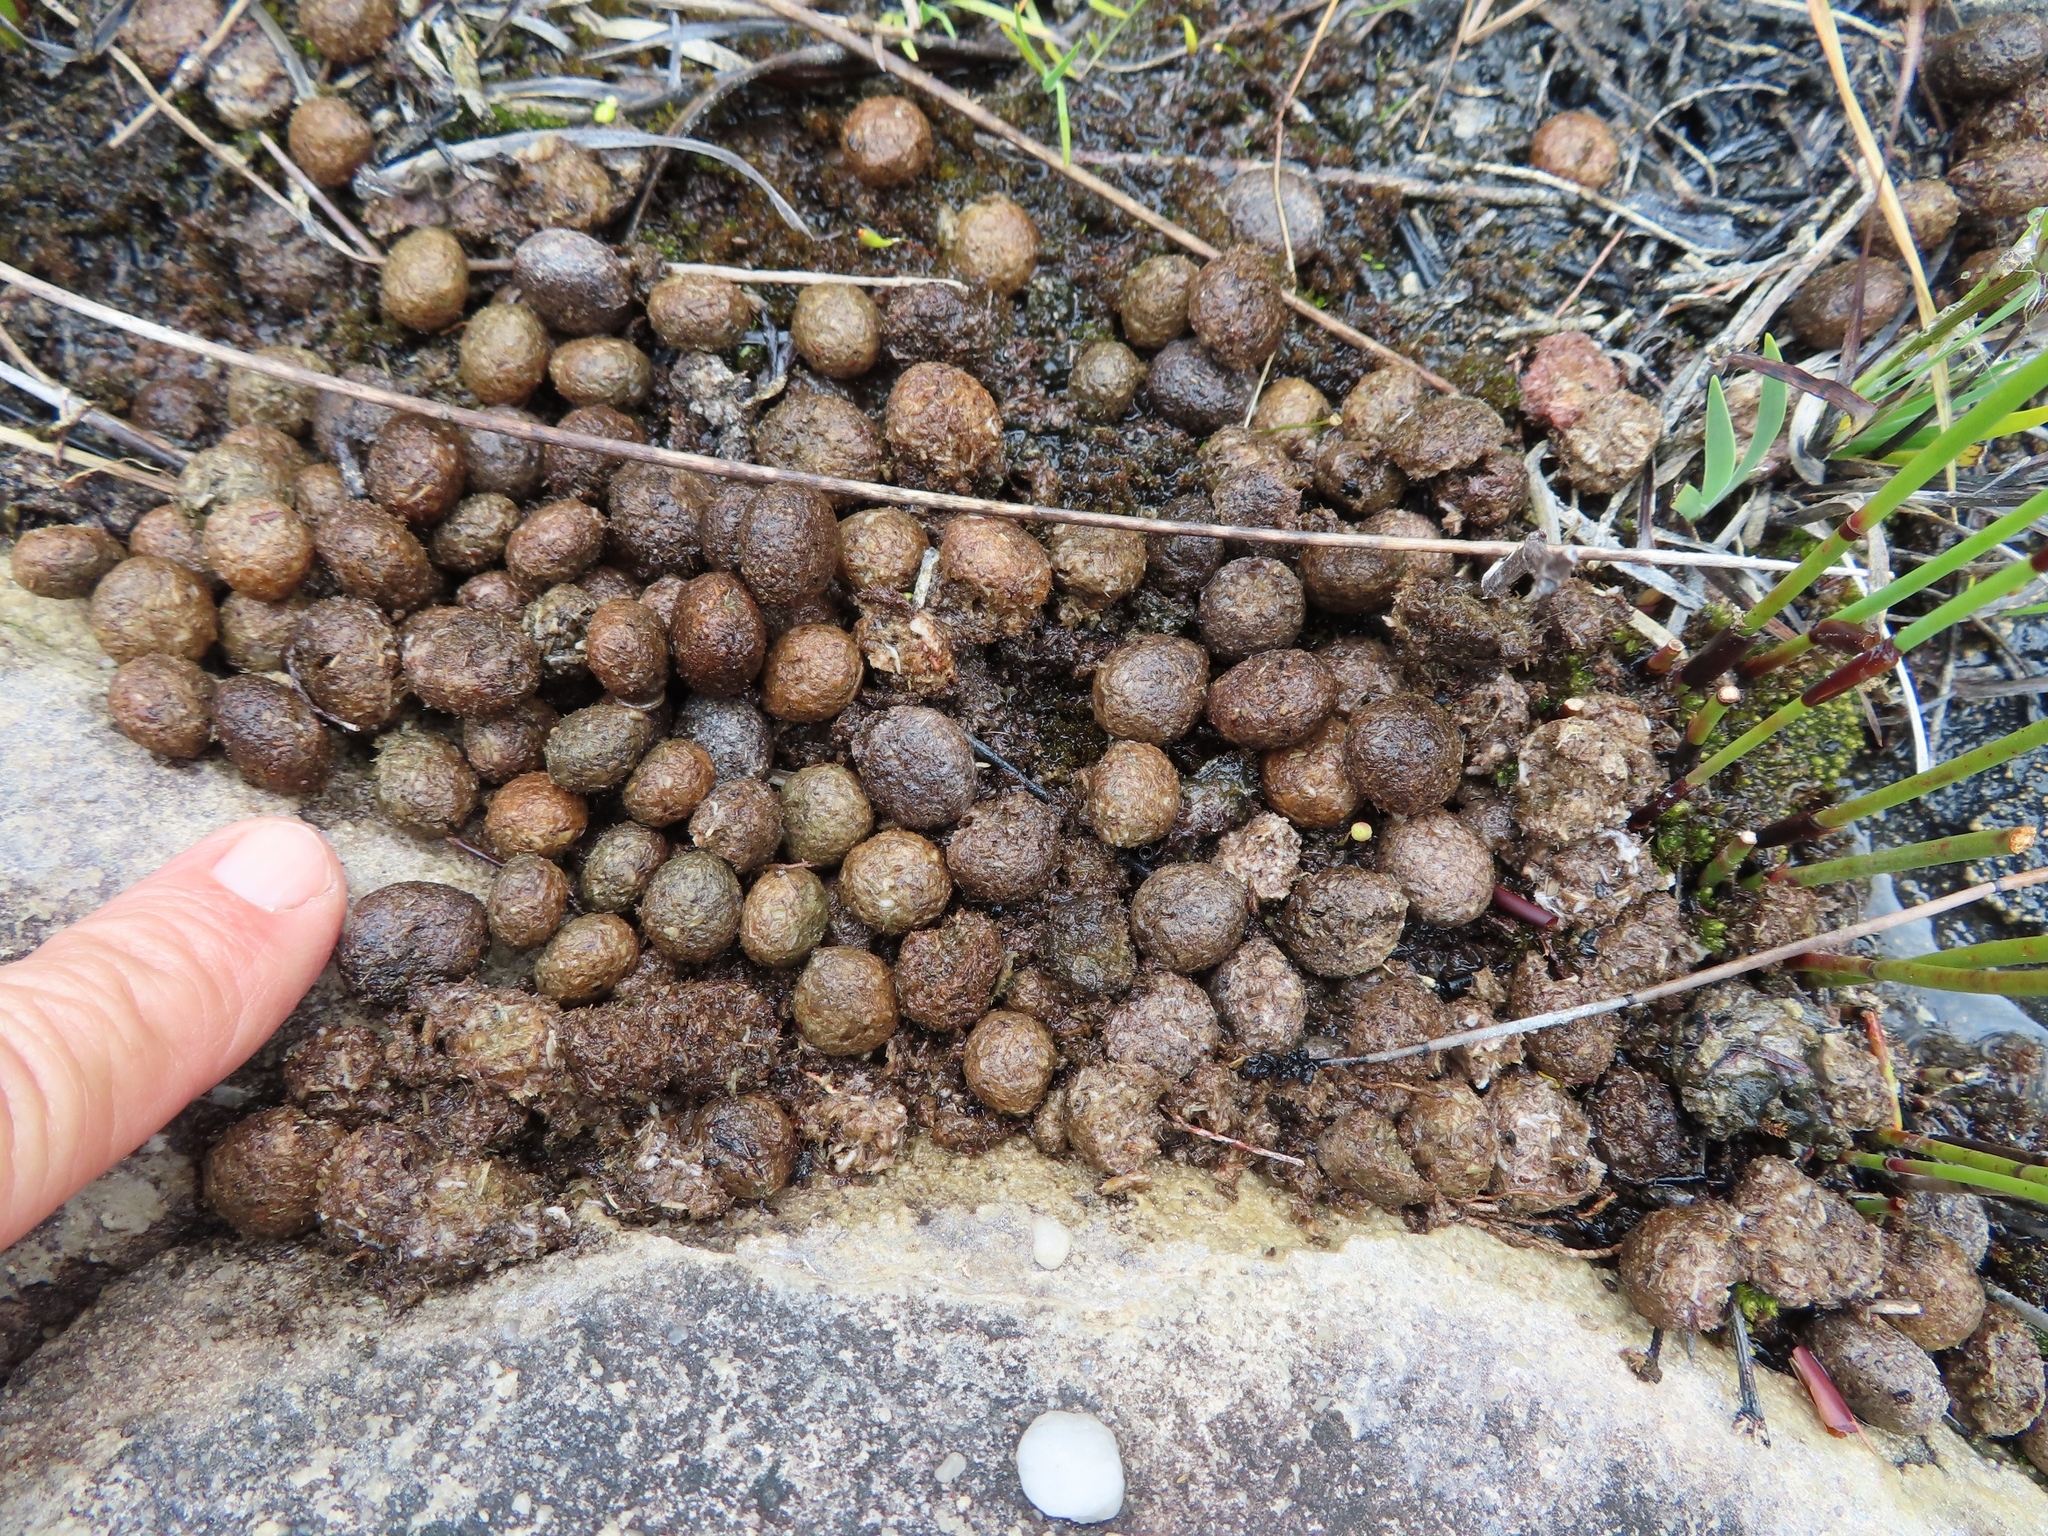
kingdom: Animalia
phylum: Chordata
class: Mammalia
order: Lagomorpha
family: Leporidae
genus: Pronolagus
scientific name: Pronolagus saundersiae
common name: Hewitt's red rock hare
